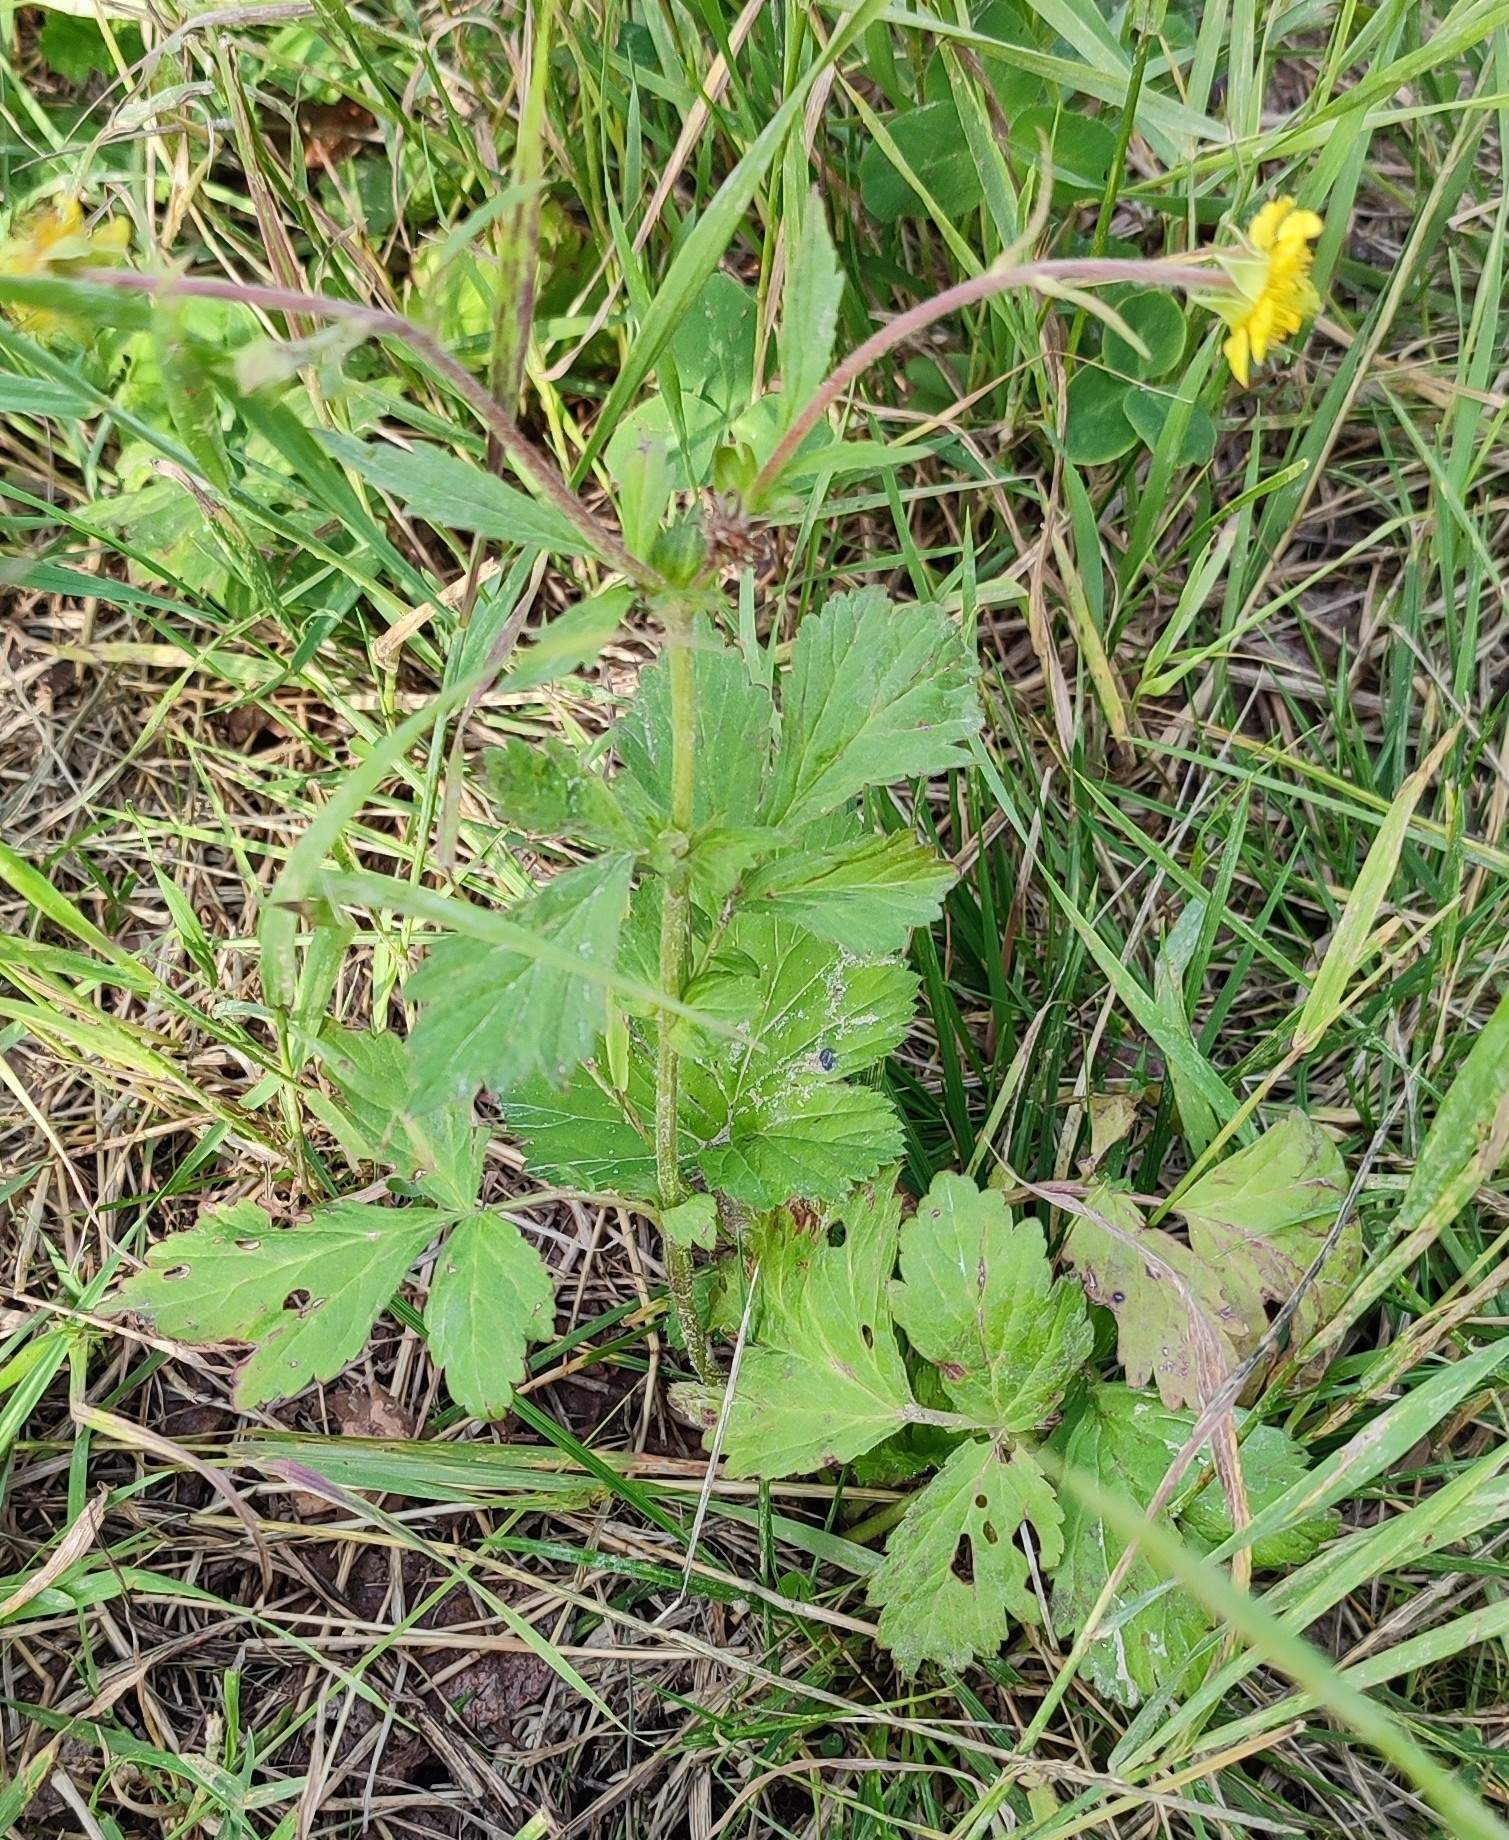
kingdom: Plantae
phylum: Tracheophyta
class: Magnoliopsida
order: Rosales
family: Rosaceae
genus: Geum
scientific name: Geum aleppicum
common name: Yellow avens
